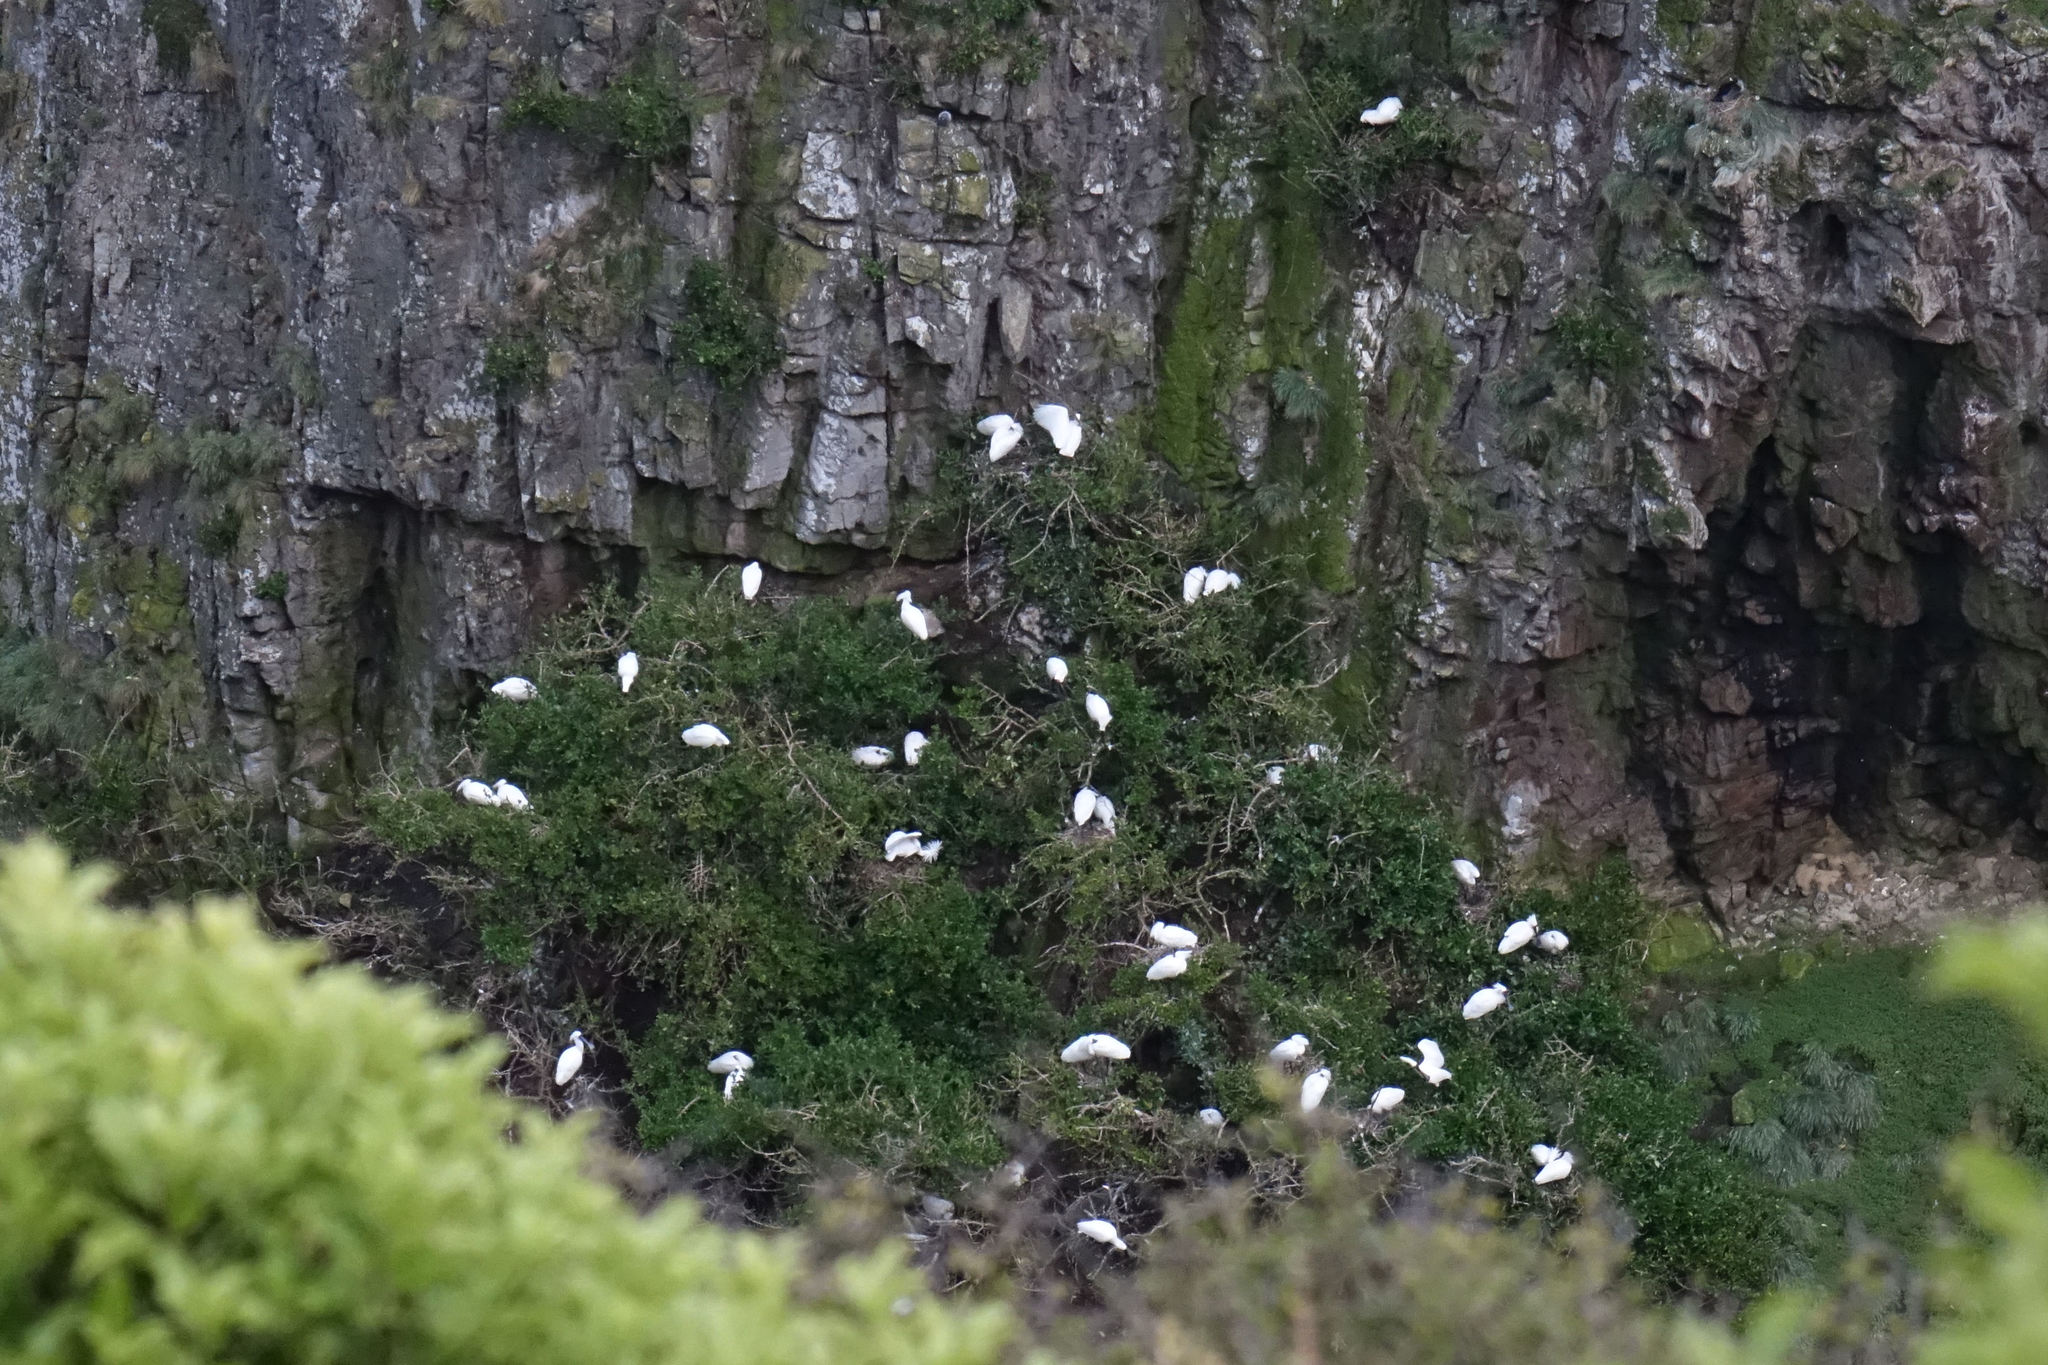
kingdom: Animalia
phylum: Chordata
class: Aves
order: Pelecaniformes
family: Threskiornithidae
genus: Platalea
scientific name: Platalea regia
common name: Royal spoonbill
